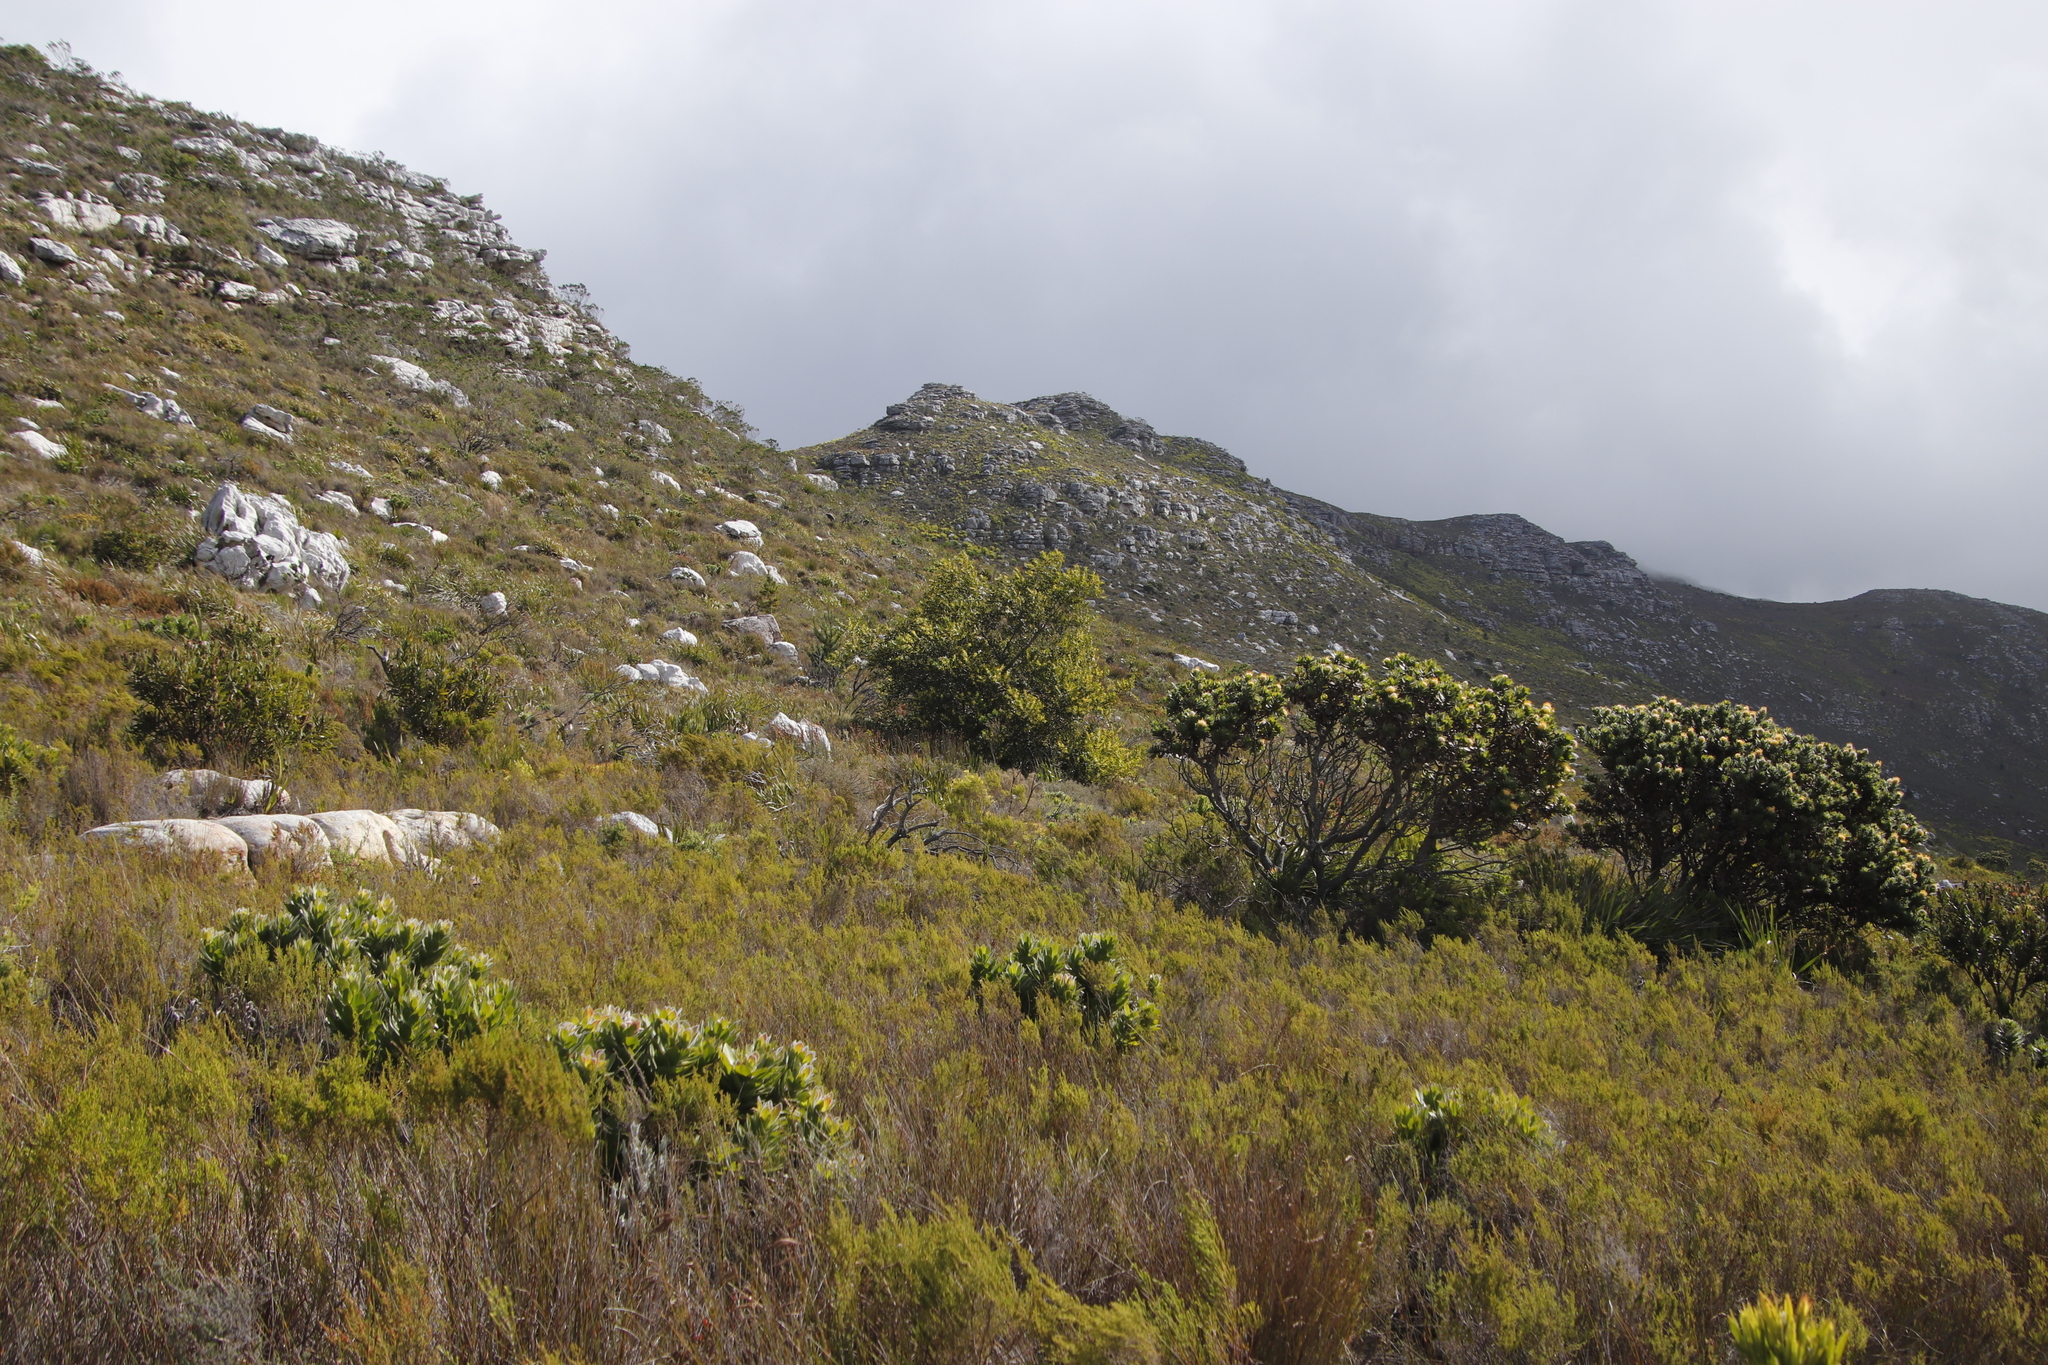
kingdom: Plantae
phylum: Tracheophyta
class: Magnoliopsida
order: Proteales
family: Proteaceae
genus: Leucospermum
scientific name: Leucospermum conocarpodendron
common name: Tree pincushion
